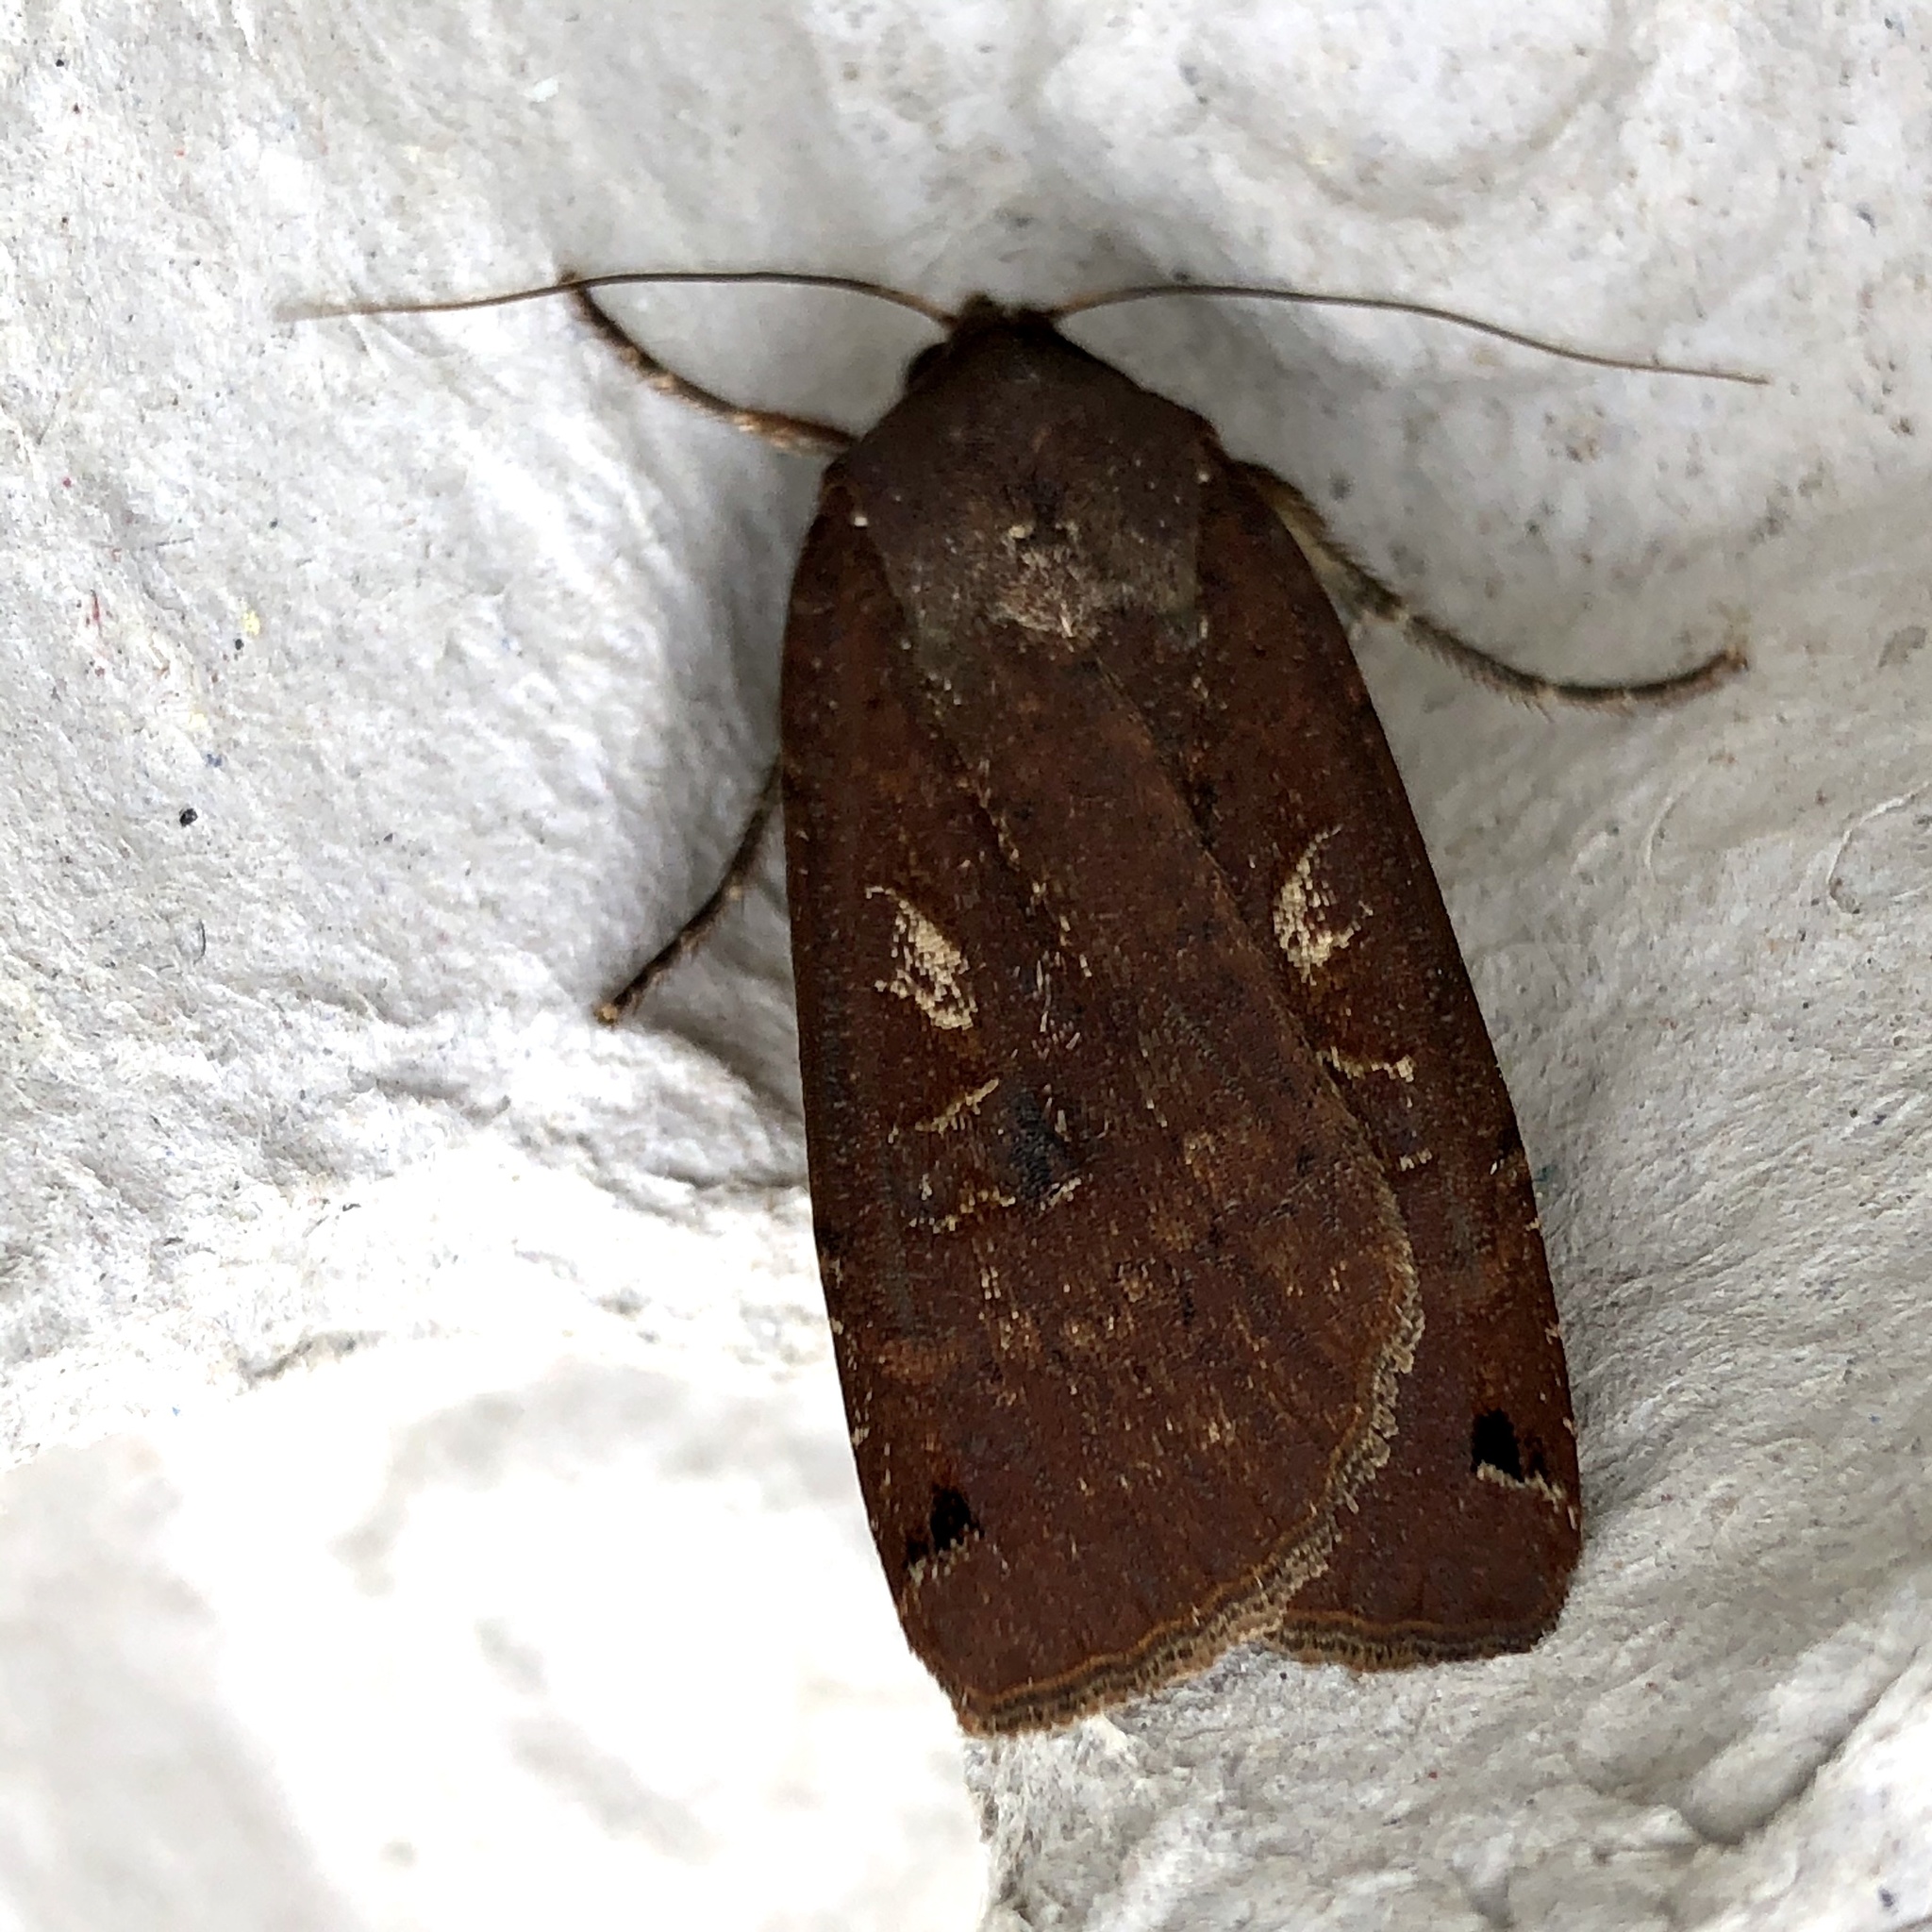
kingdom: Animalia
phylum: Arthropoda
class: Insecta
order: Lepidoptera
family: Noctuidae
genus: Noctua
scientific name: Noctua pronuba
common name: Large yellow underwing
